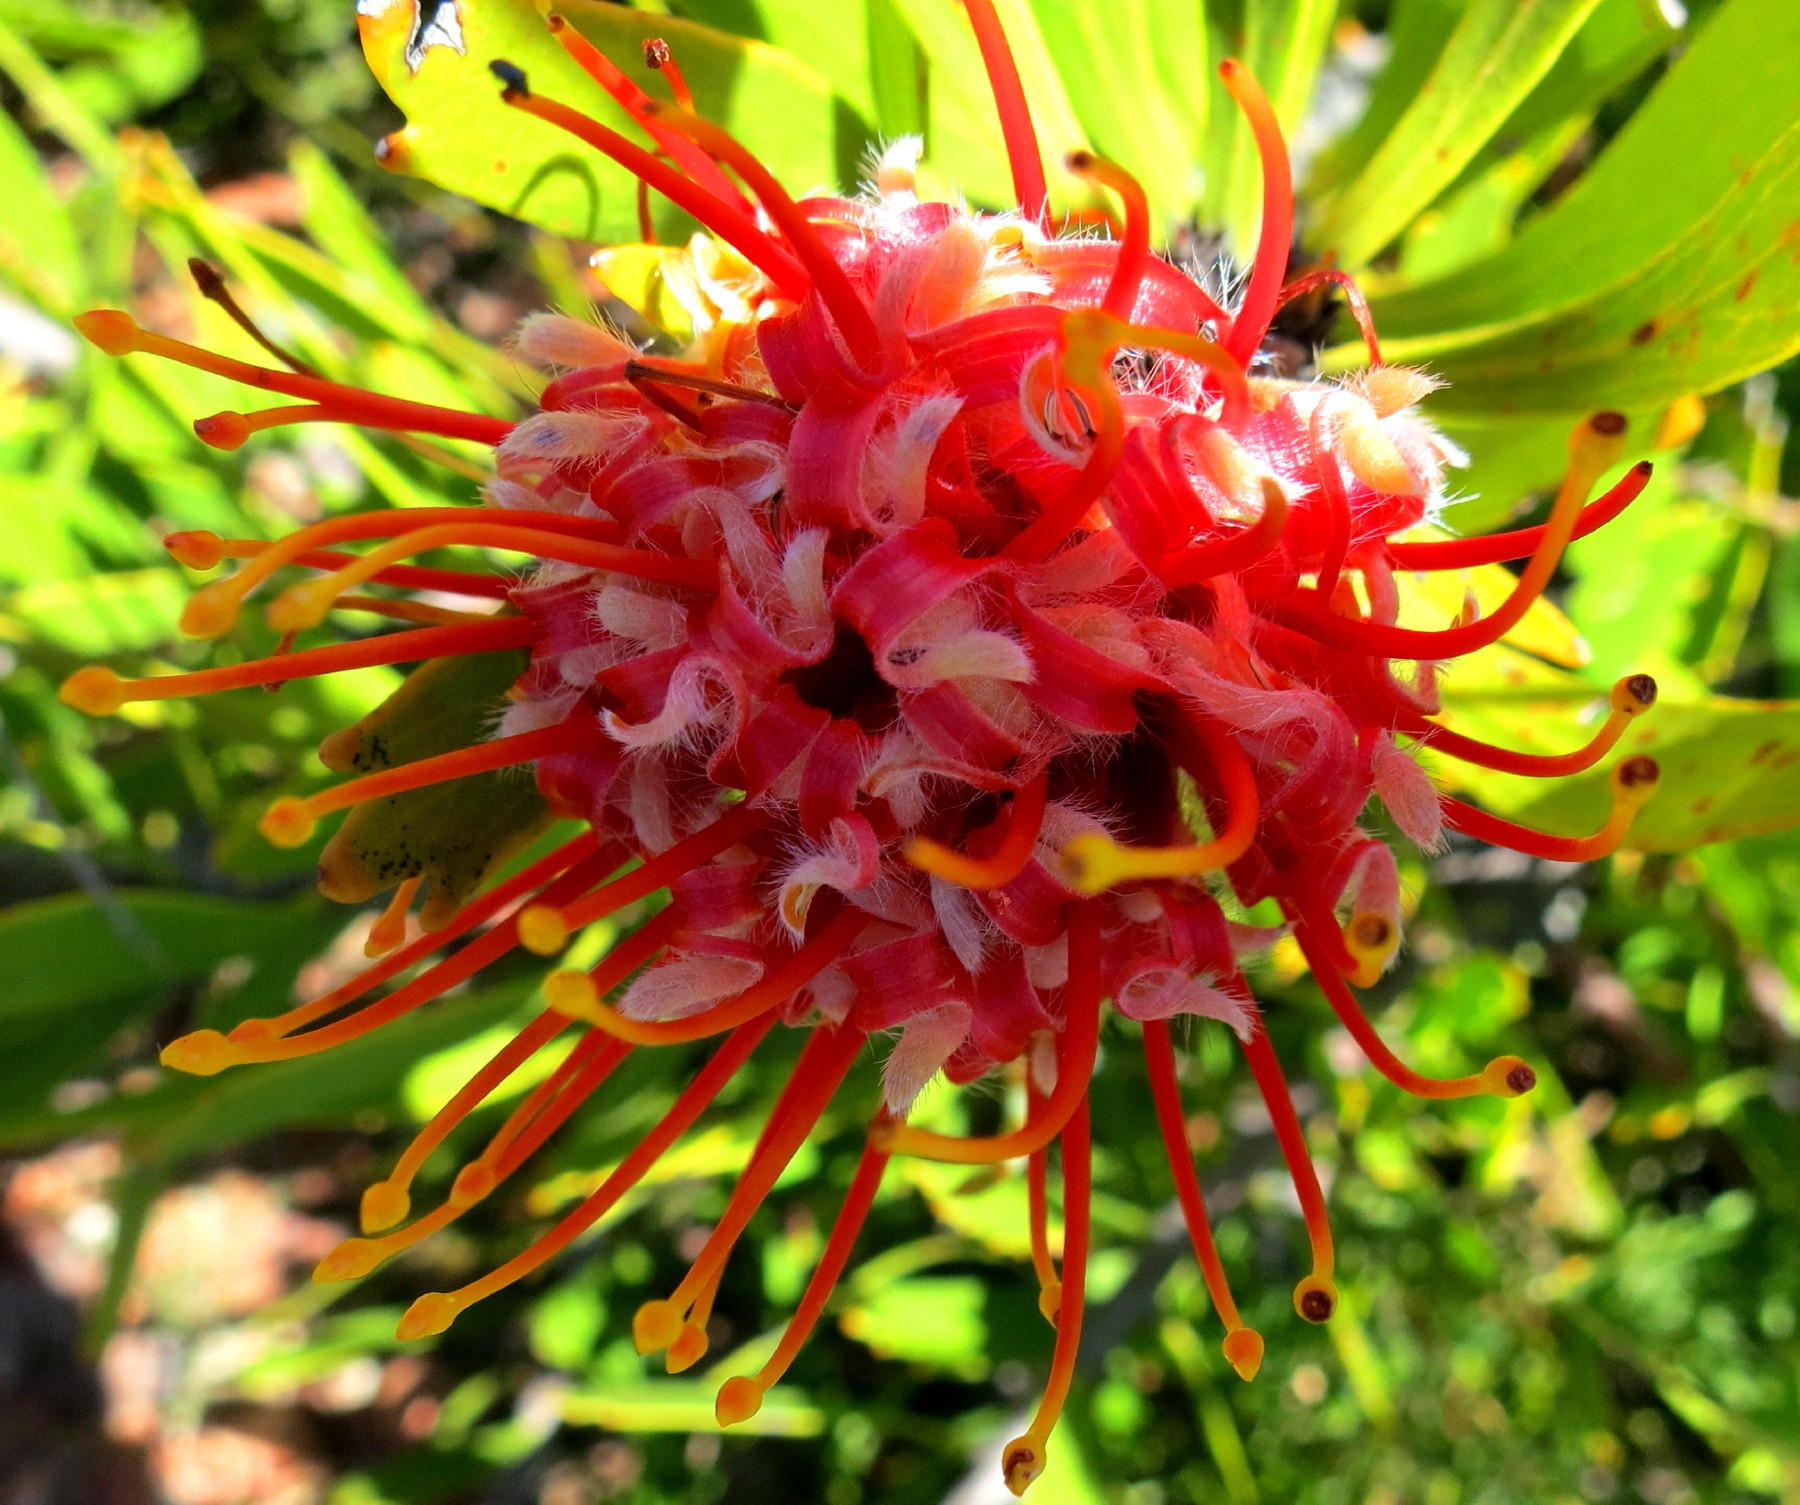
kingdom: Plantae
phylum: Tracheophyta
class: Magnoliopsida
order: Proteales
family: Proteaceae
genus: Leucospermum
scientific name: Leucospermum cuneiforme
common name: Common pincushion
